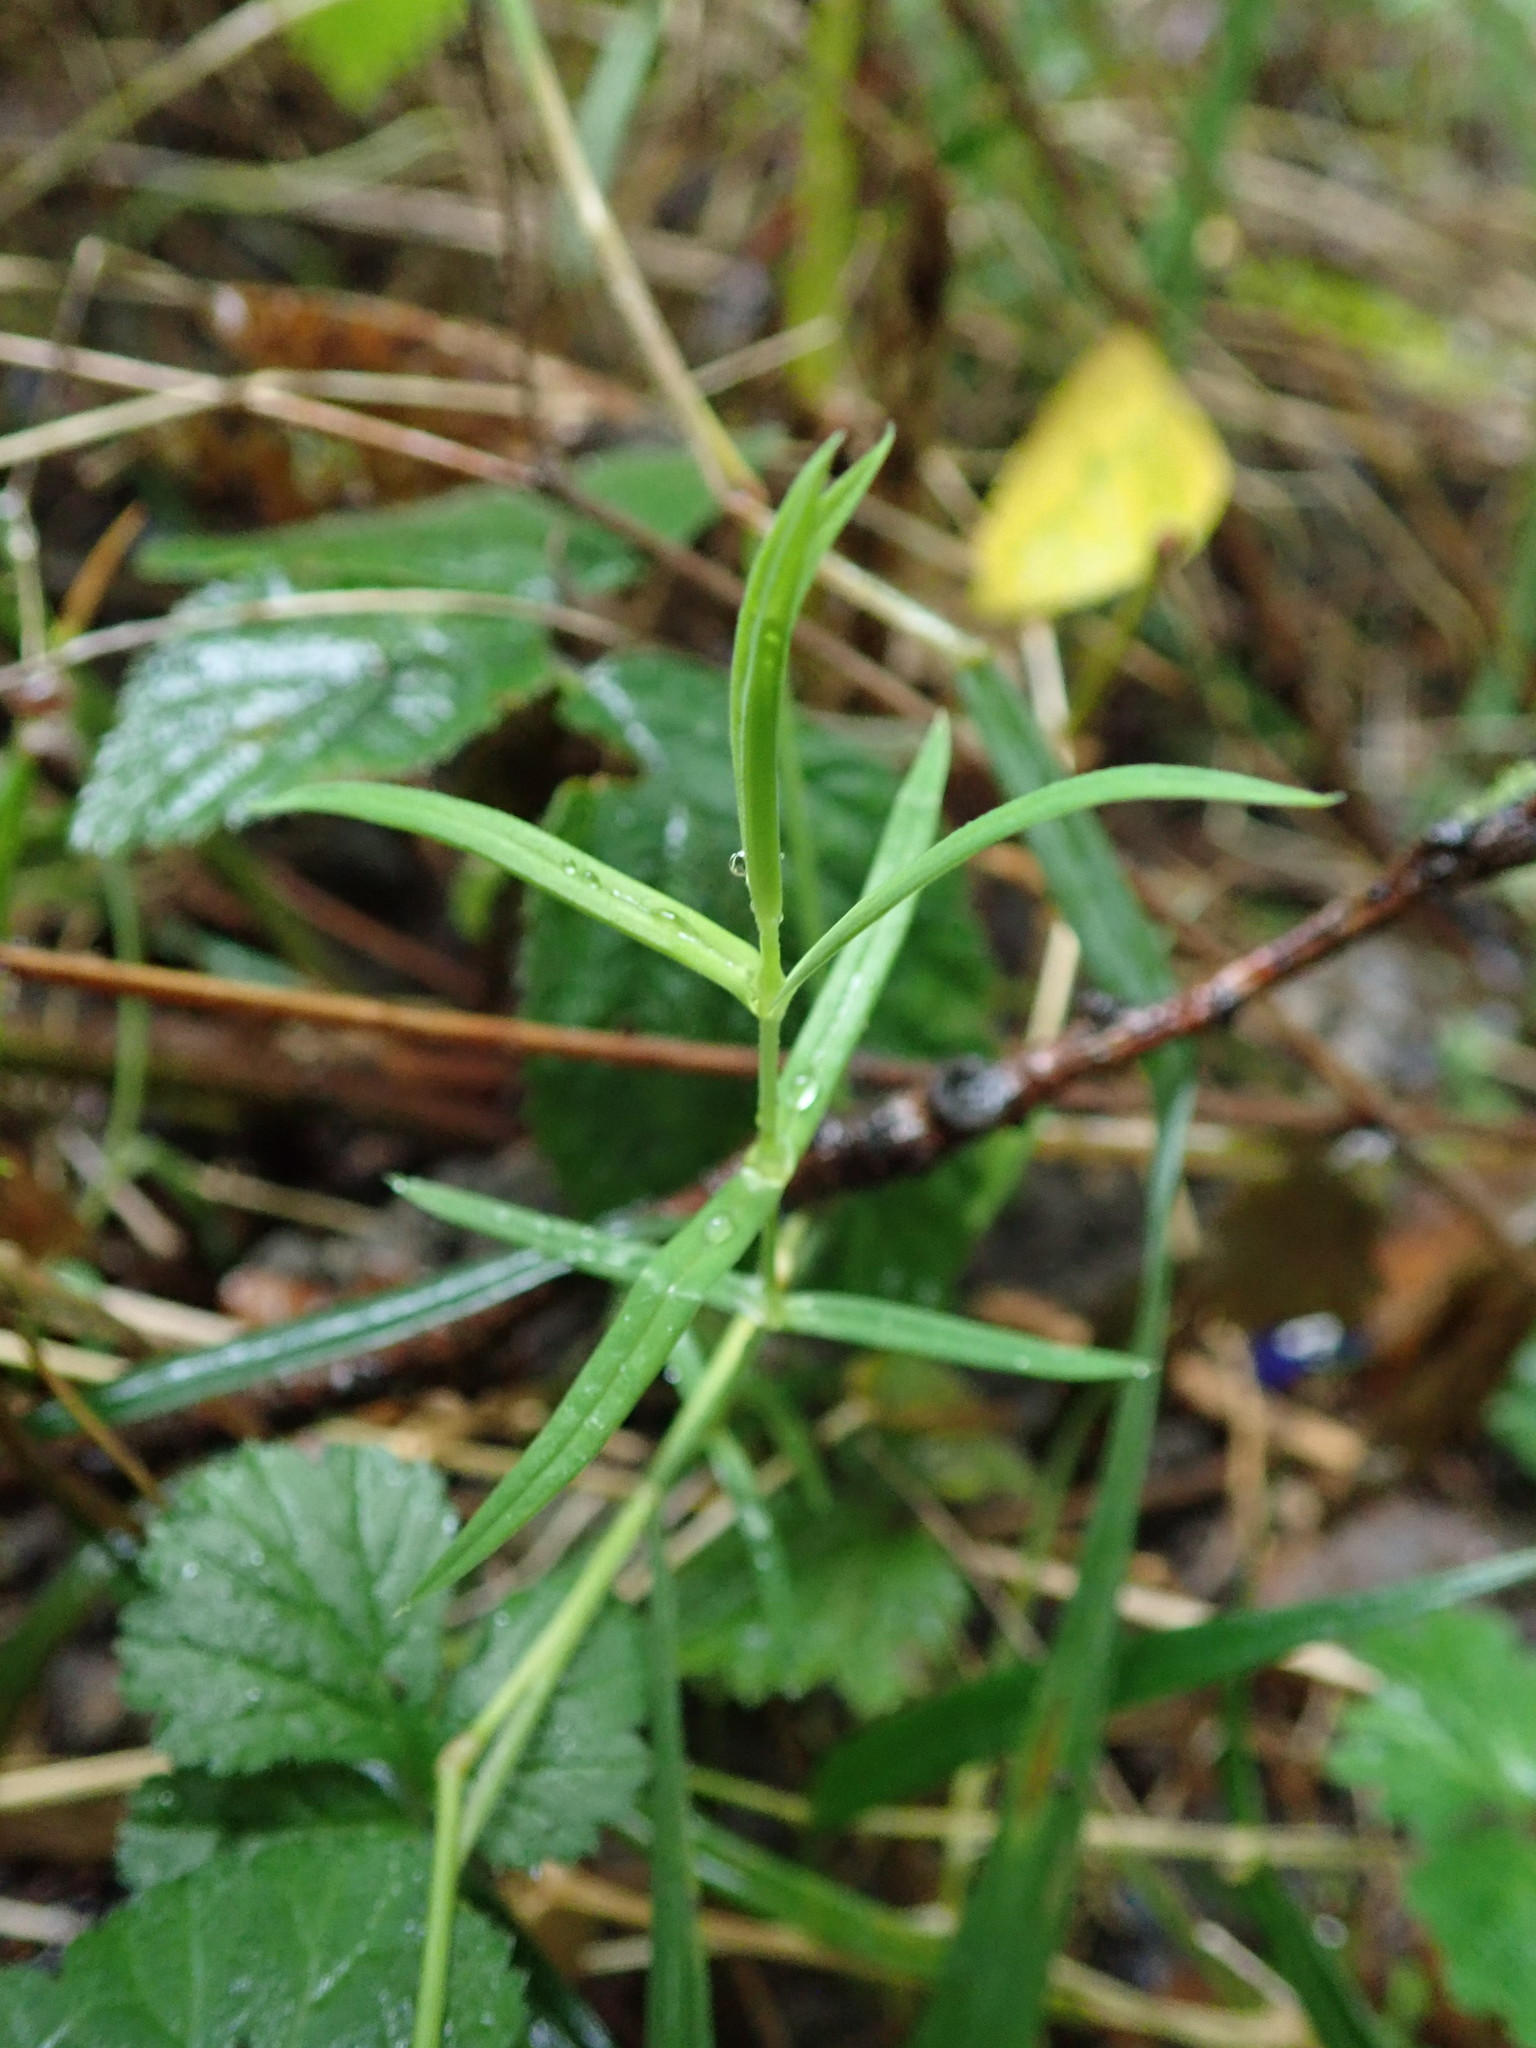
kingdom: Plantae
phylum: Tracheophyta
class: Magnoliopsida
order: Caryophyllales
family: Caryophyllaceae
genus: Rabelera
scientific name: Rabelera holostea
